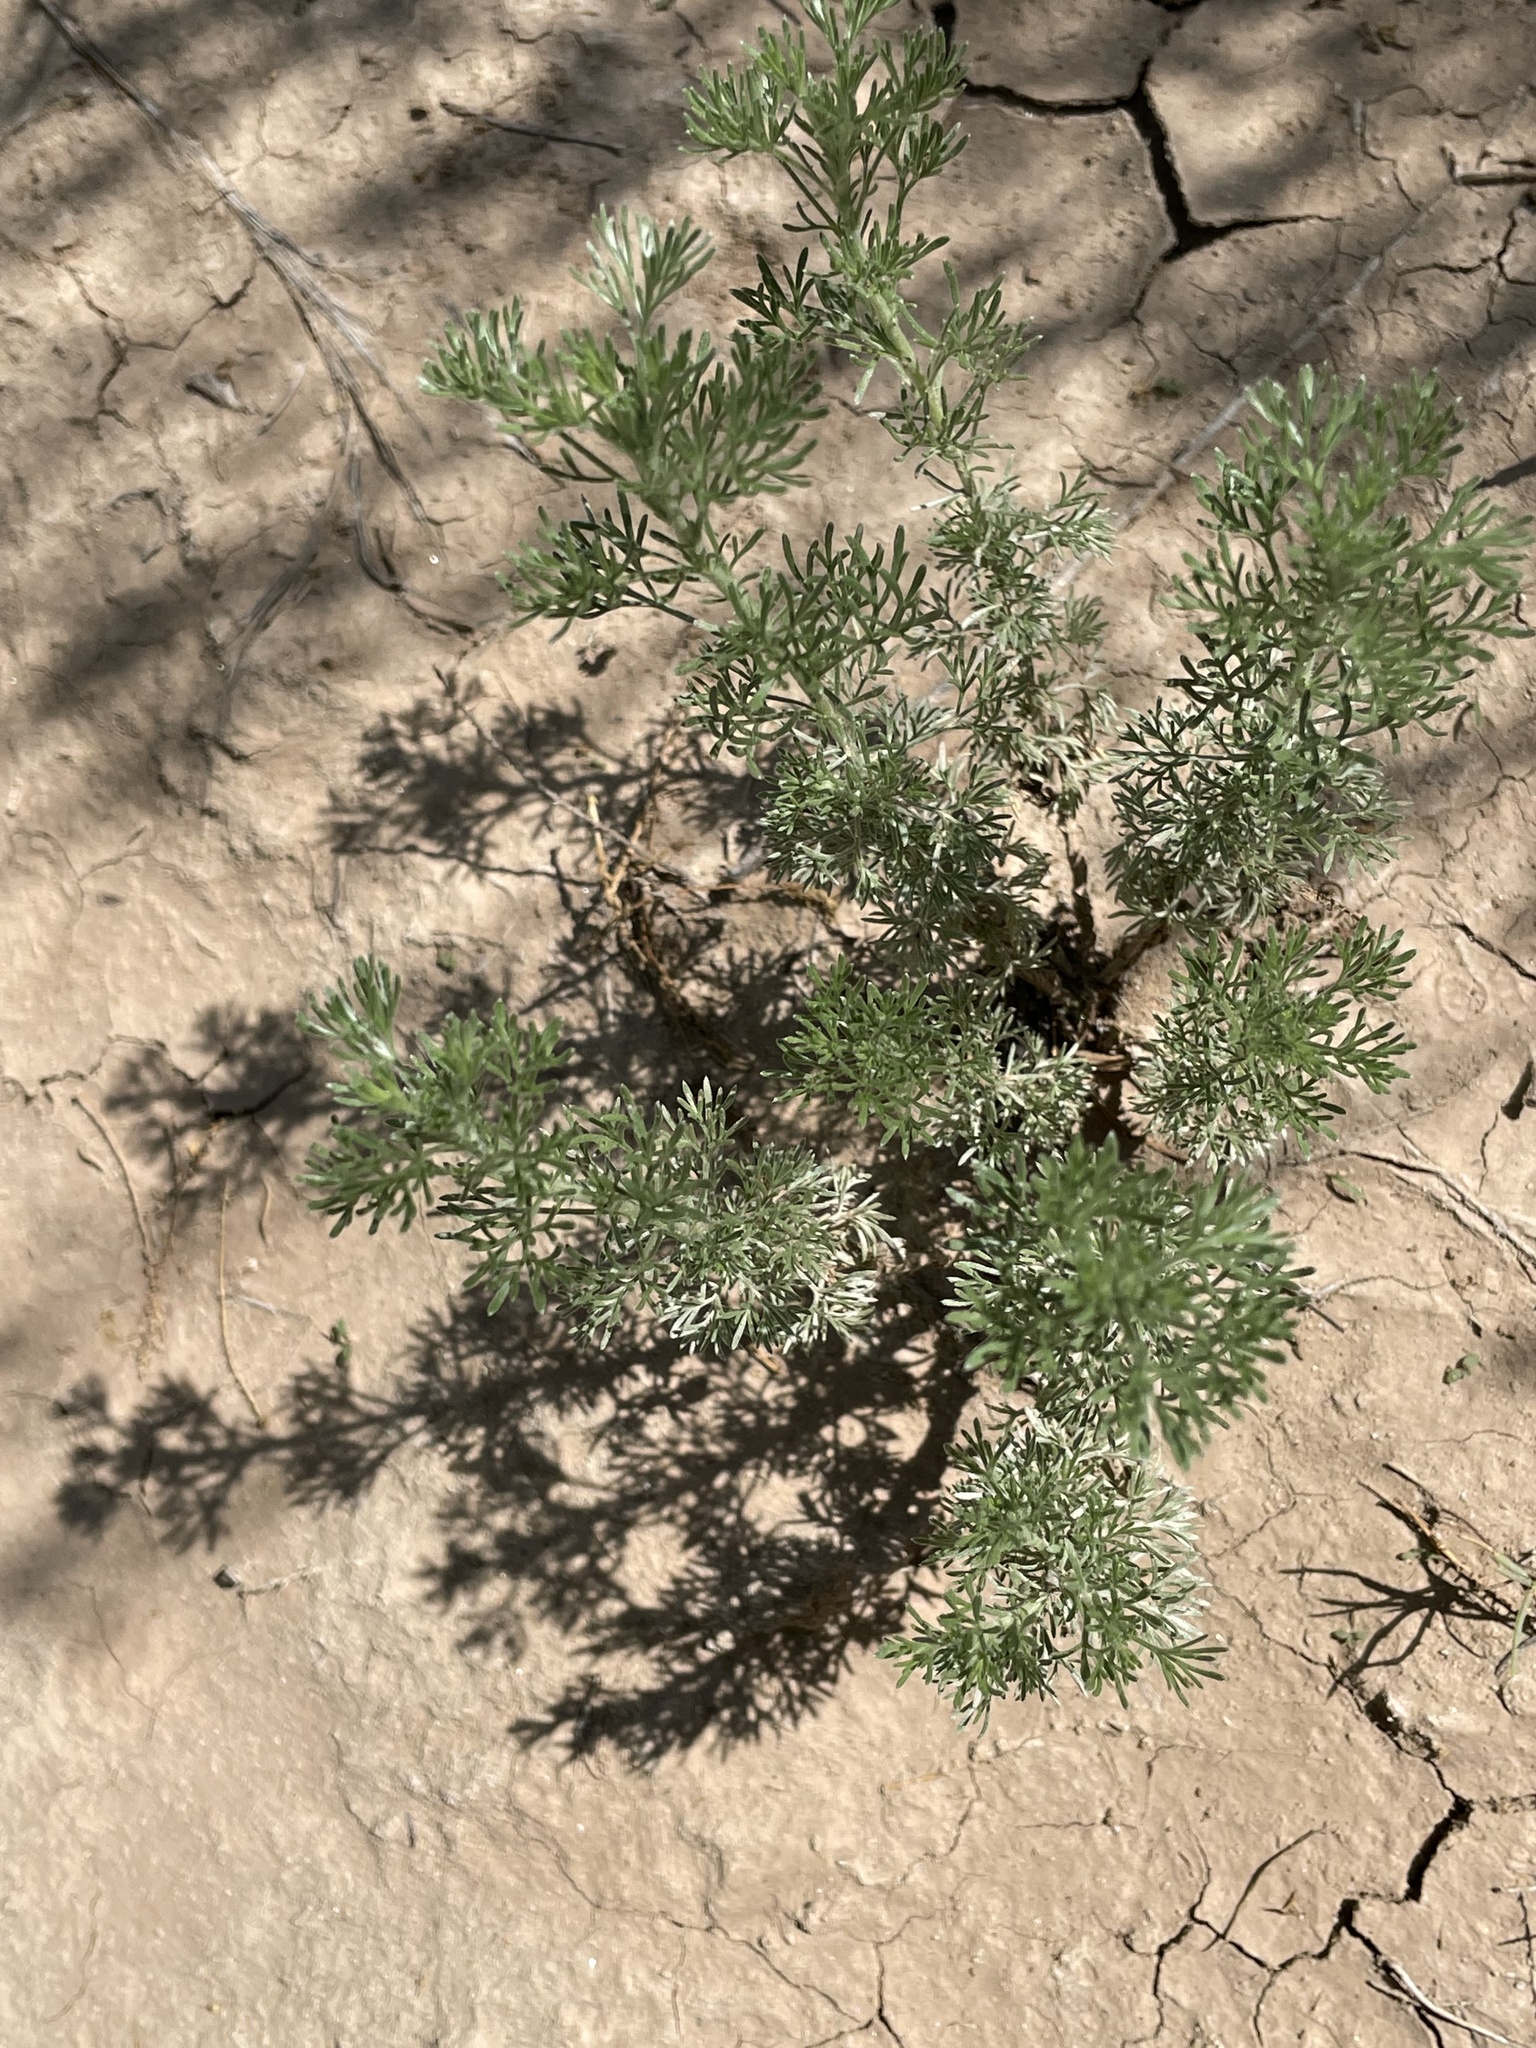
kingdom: Plantae
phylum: Tracheophyta
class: Magnoliopsida
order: Asterales
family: Asteraceae
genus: Artemisia
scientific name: Artemisia frigida
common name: Prairie sagewort
